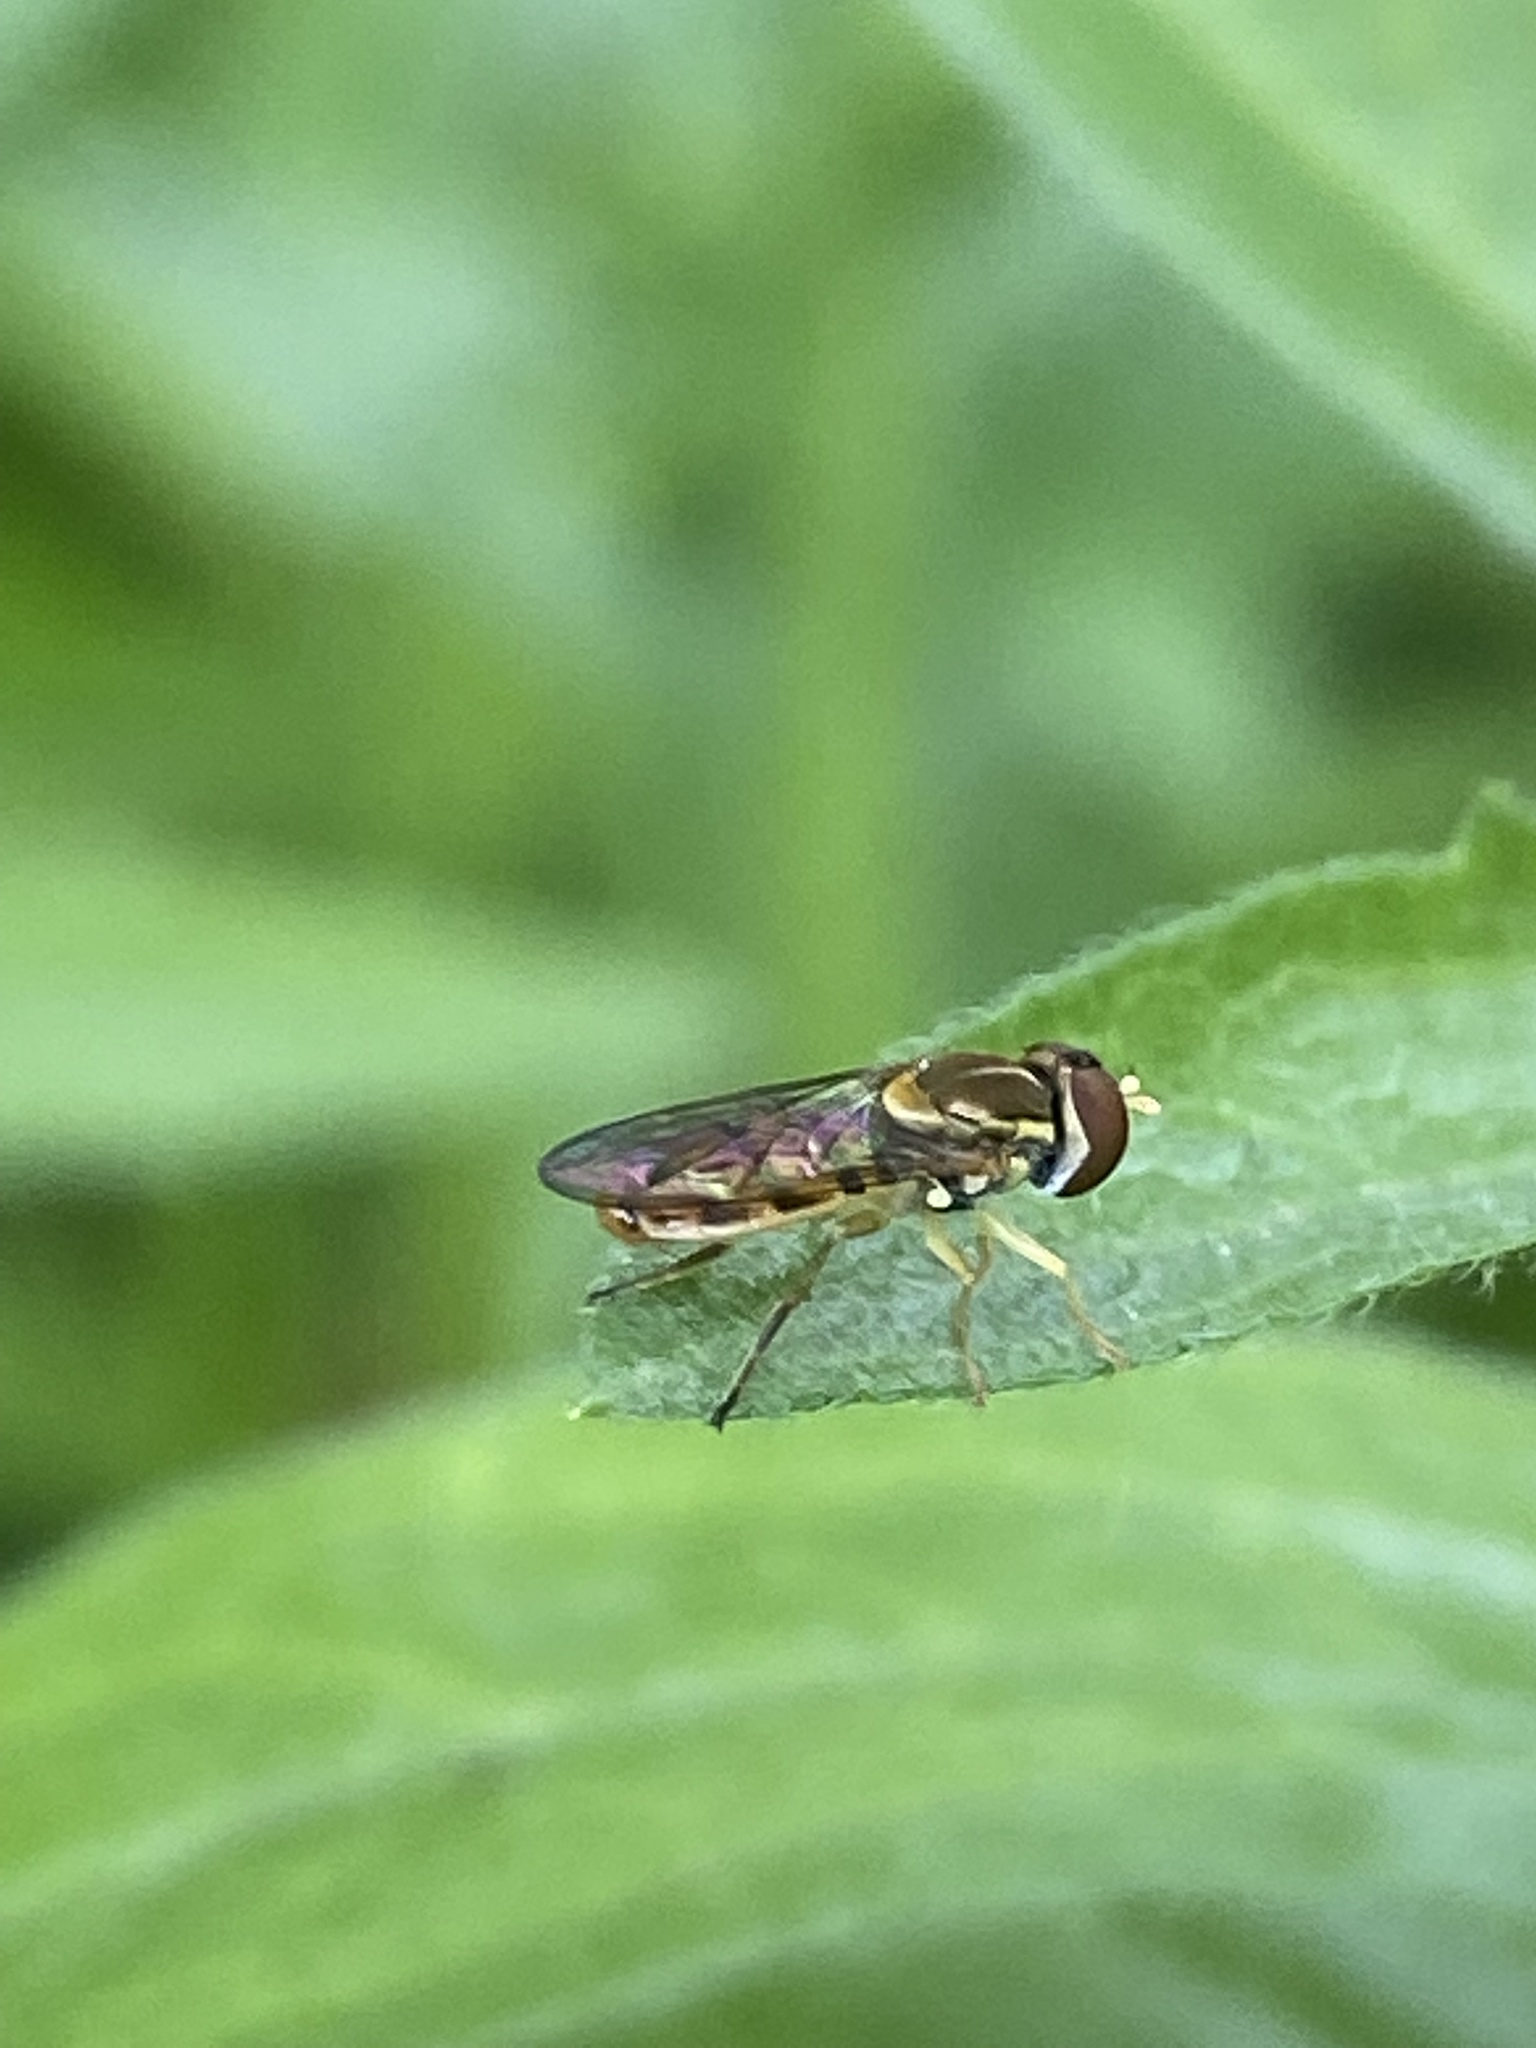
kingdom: Animalia
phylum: Arthropoda
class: Insecta
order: Diptera
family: Syrphidae
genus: Toxomerus
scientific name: Toxomerus marginatus
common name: Syrphid fly
